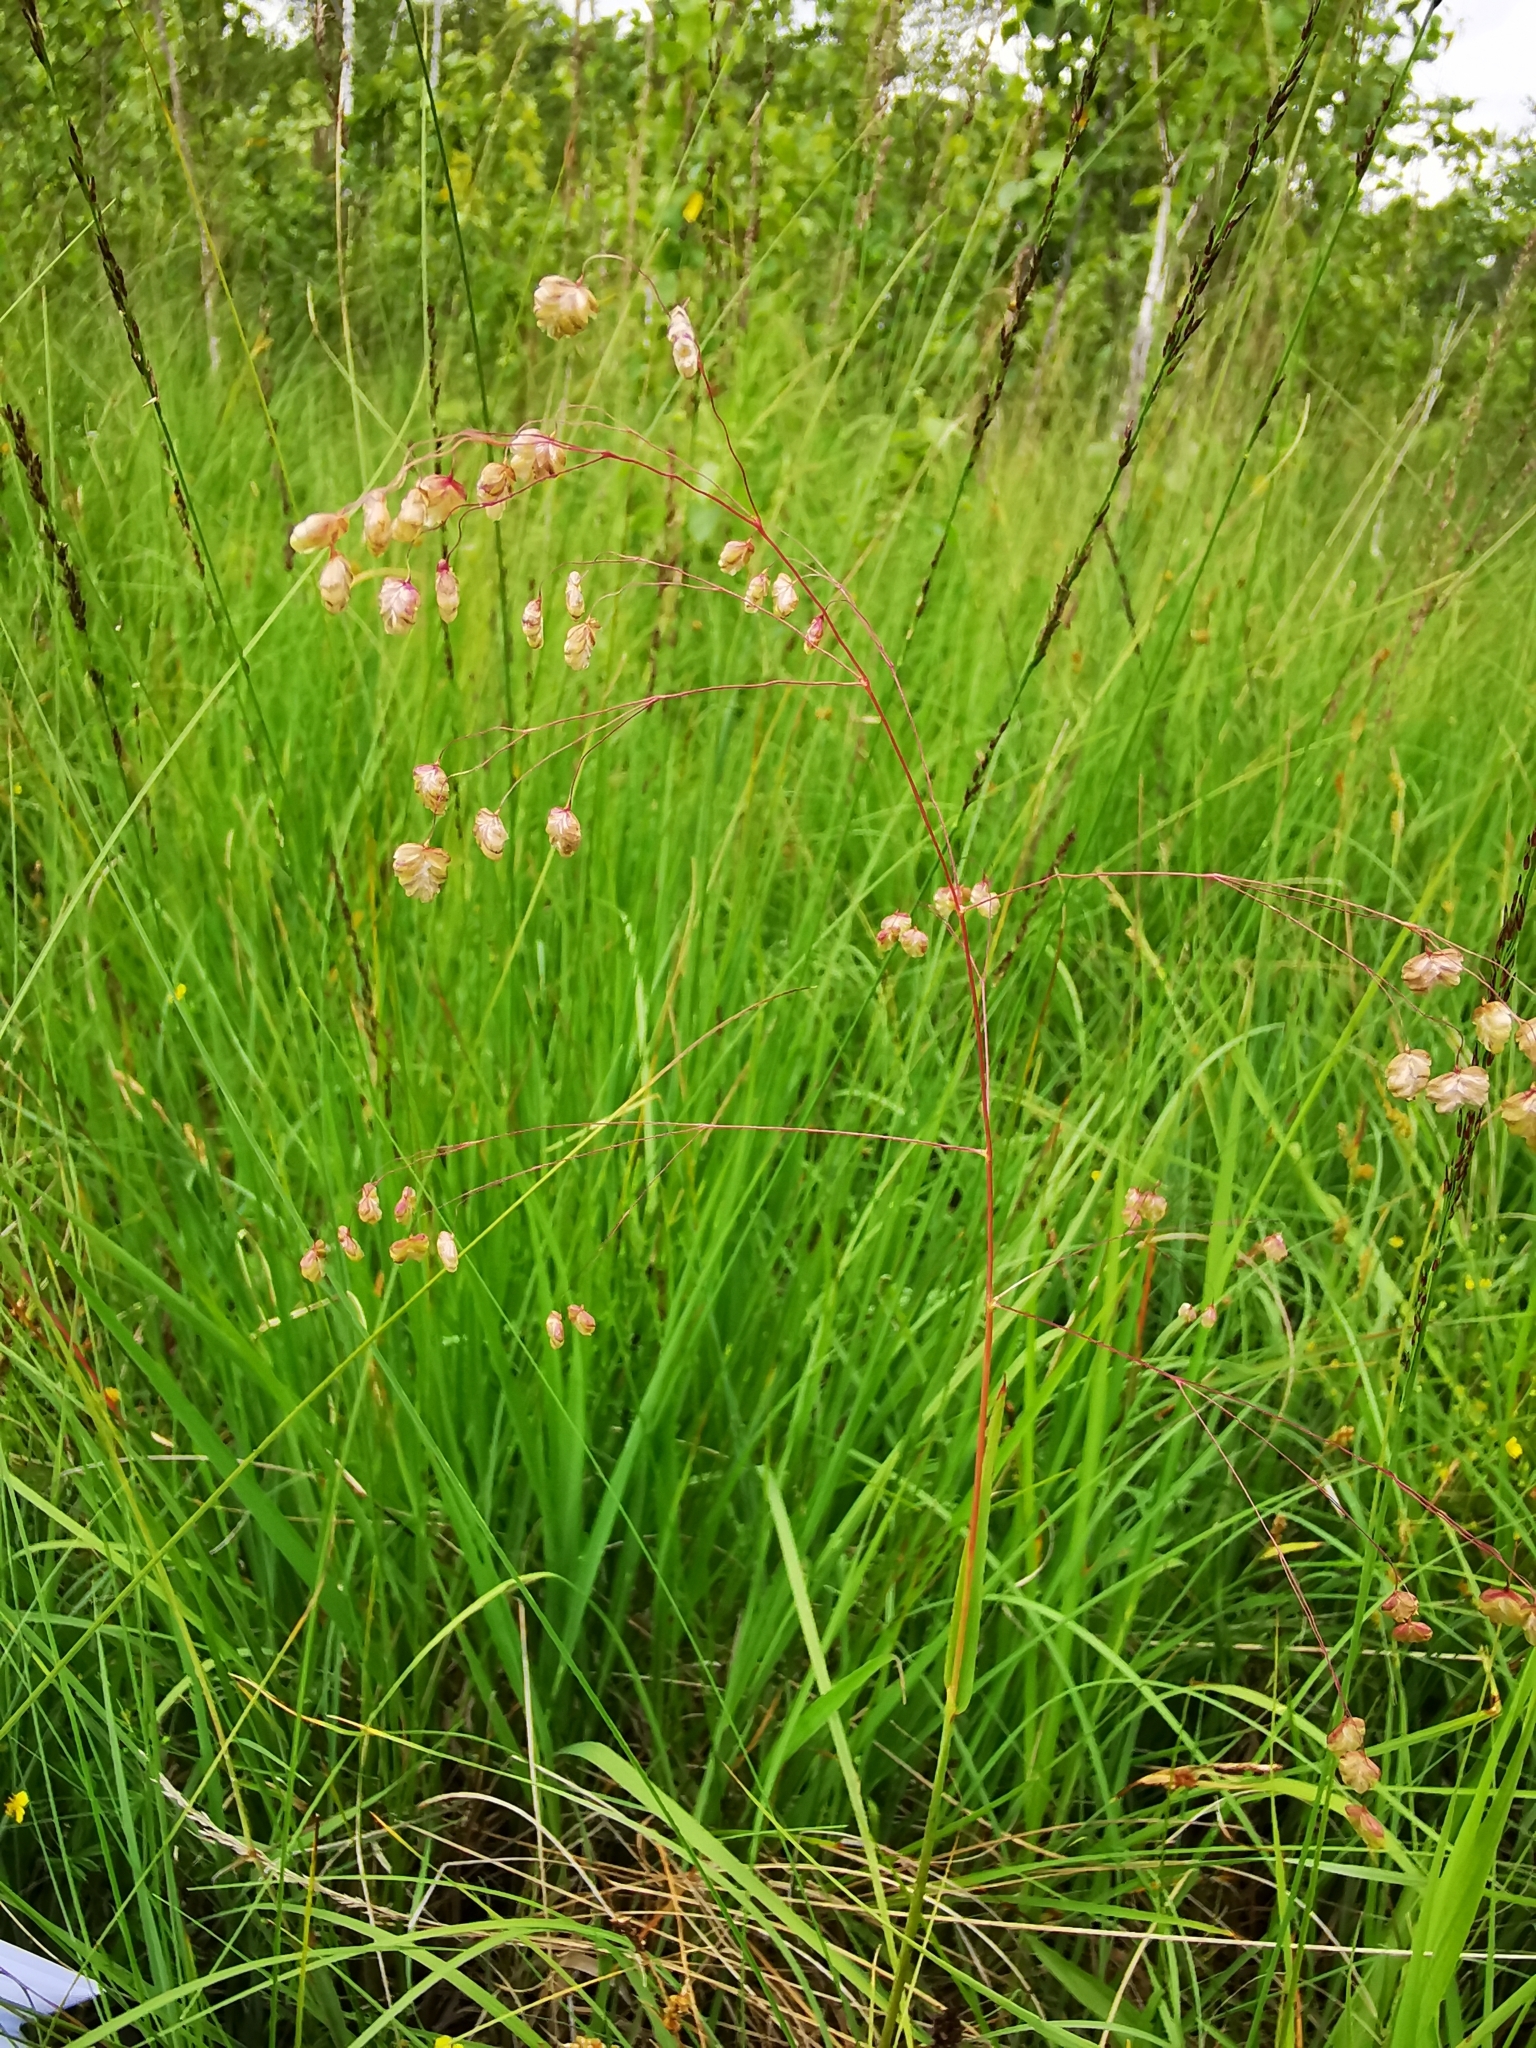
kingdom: Plantae
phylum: Tracheophyta
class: Liliopsida
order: Poales
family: Poaceae
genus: Briza
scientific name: Briza media
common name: Quaking grass
